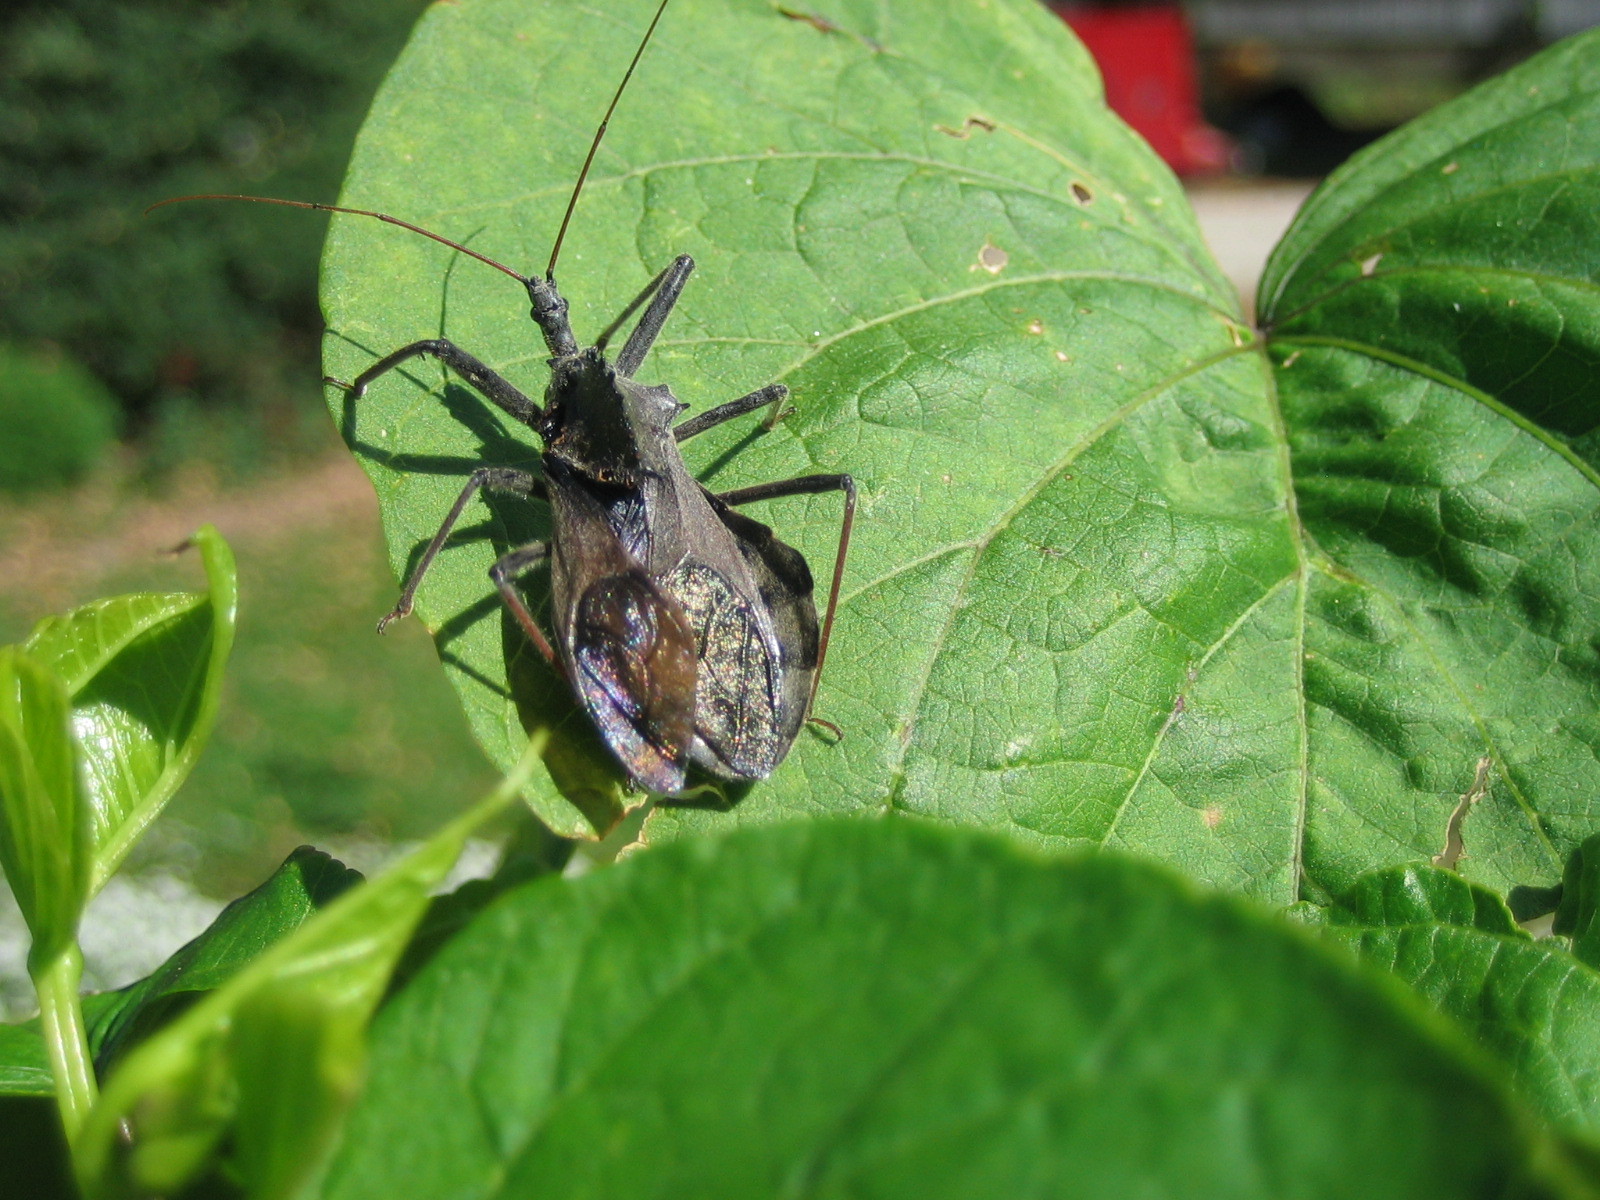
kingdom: Animalia
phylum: Arthropoda
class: Insecta
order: Hemiptera
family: Reduviidae
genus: Arilus
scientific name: Arilus cristatus
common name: North american wheel bug
